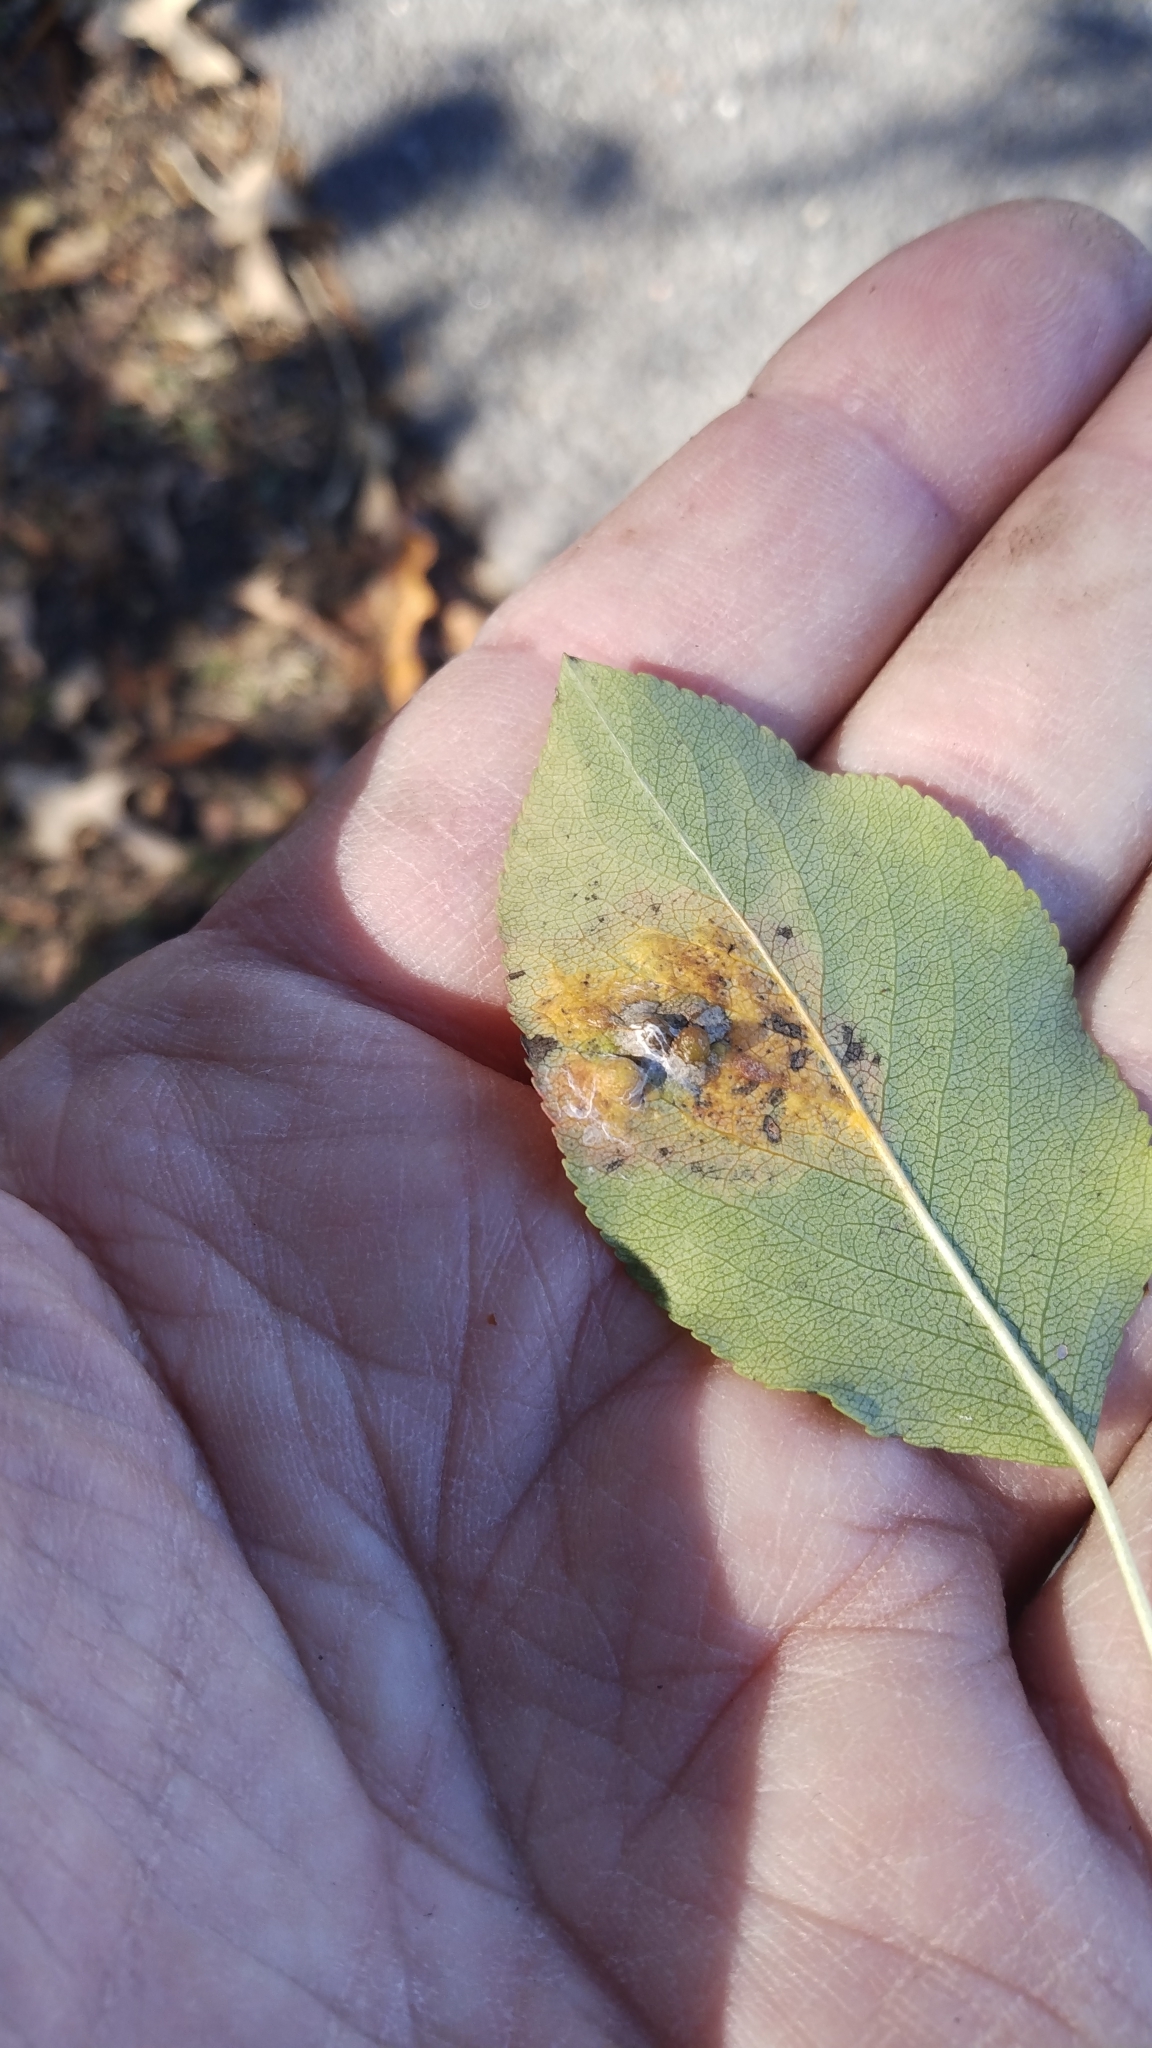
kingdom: Fungi
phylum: Basidiomycota
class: Pucciniomycetes
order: Pucciniales
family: Gymnosporangiaceae
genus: Gymnosporangium
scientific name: Gymnosporangium sabinae
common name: Pear trellis rust fungus
